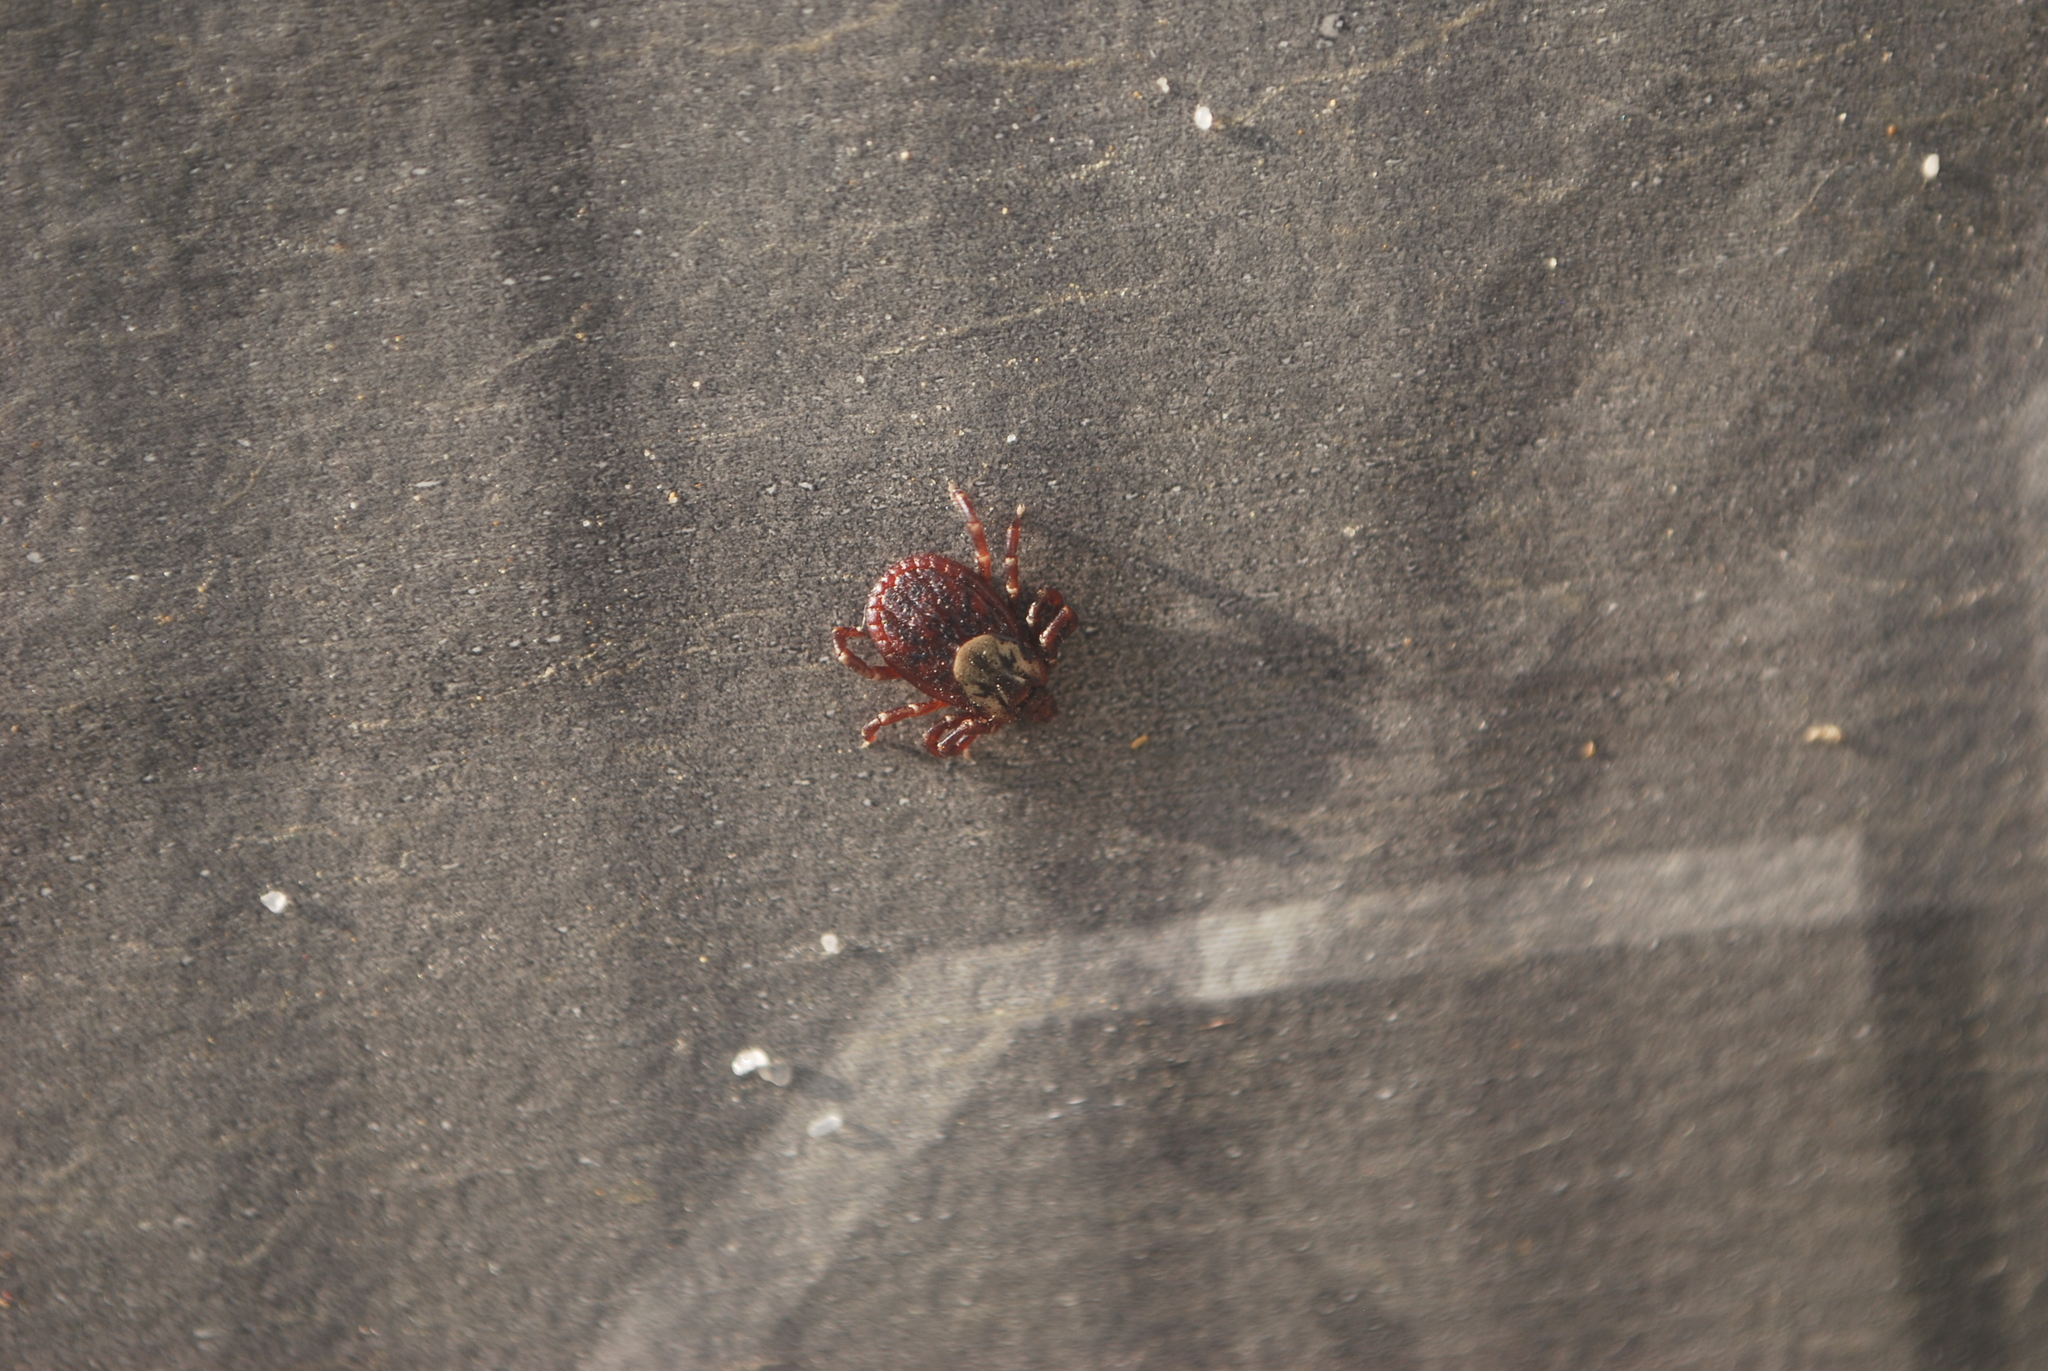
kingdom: Animalia
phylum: Arthropoda
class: Arachnida
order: Ixodida
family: Ixodidae
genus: Dermacentor
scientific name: Dermacentor variabilis
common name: American dog tick
